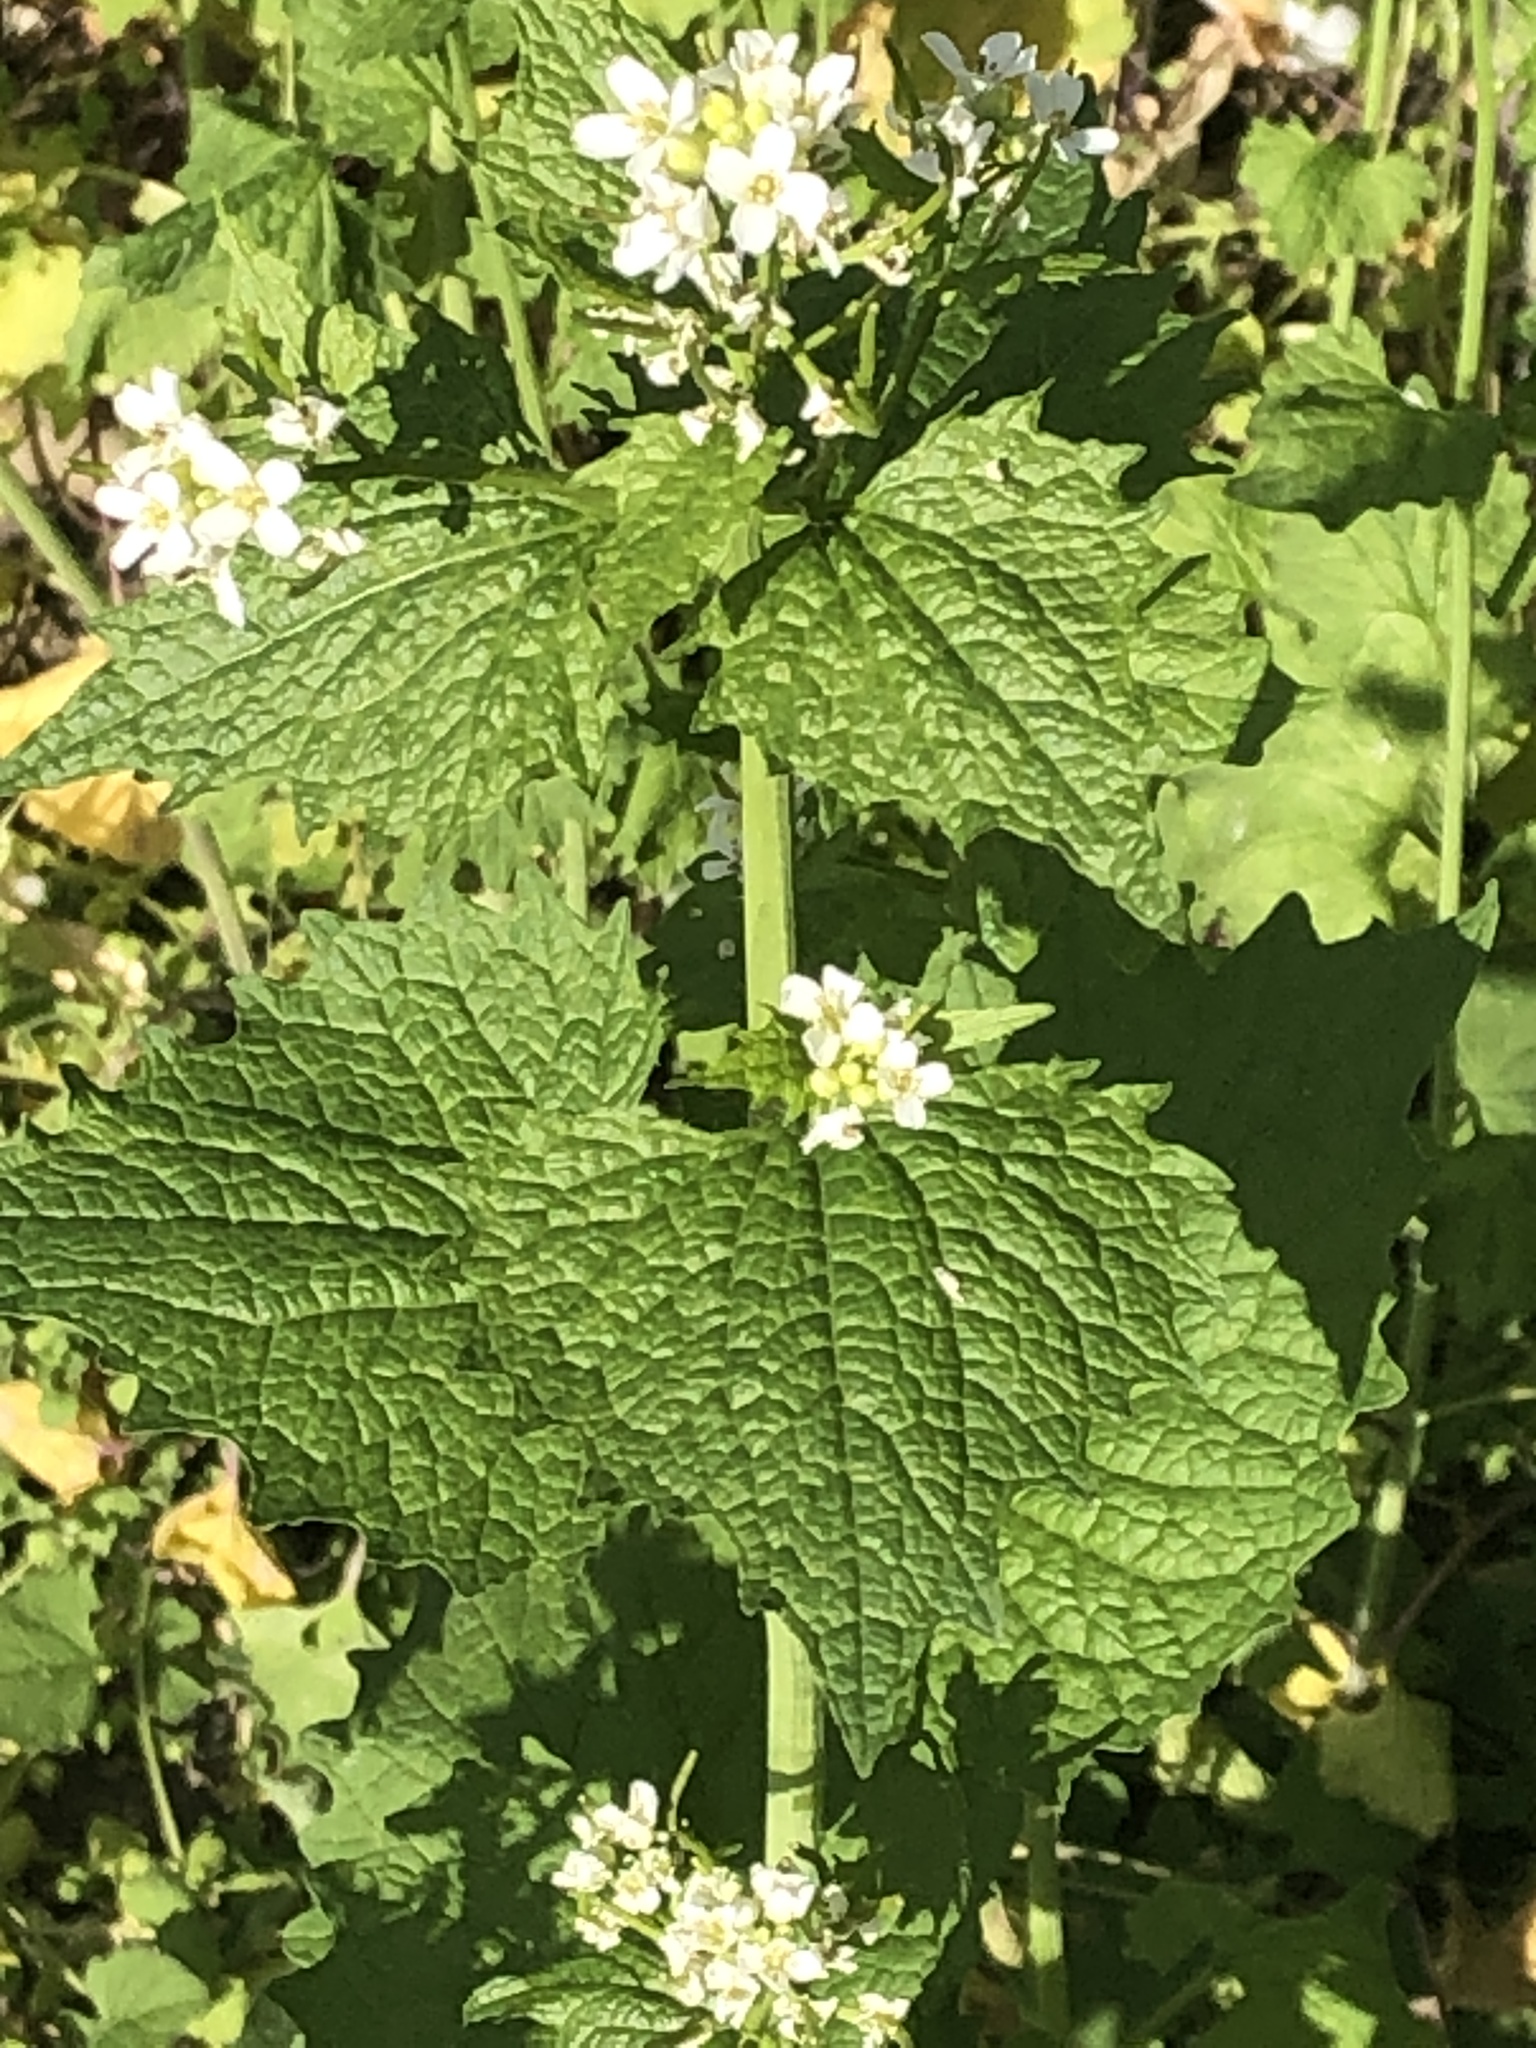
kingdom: Plantae
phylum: Tracheophyta
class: Magnoliopsida
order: Brassicales
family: Brassicaceae
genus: Alliaria
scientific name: Alliaria petiolata
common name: Garlic mustard
